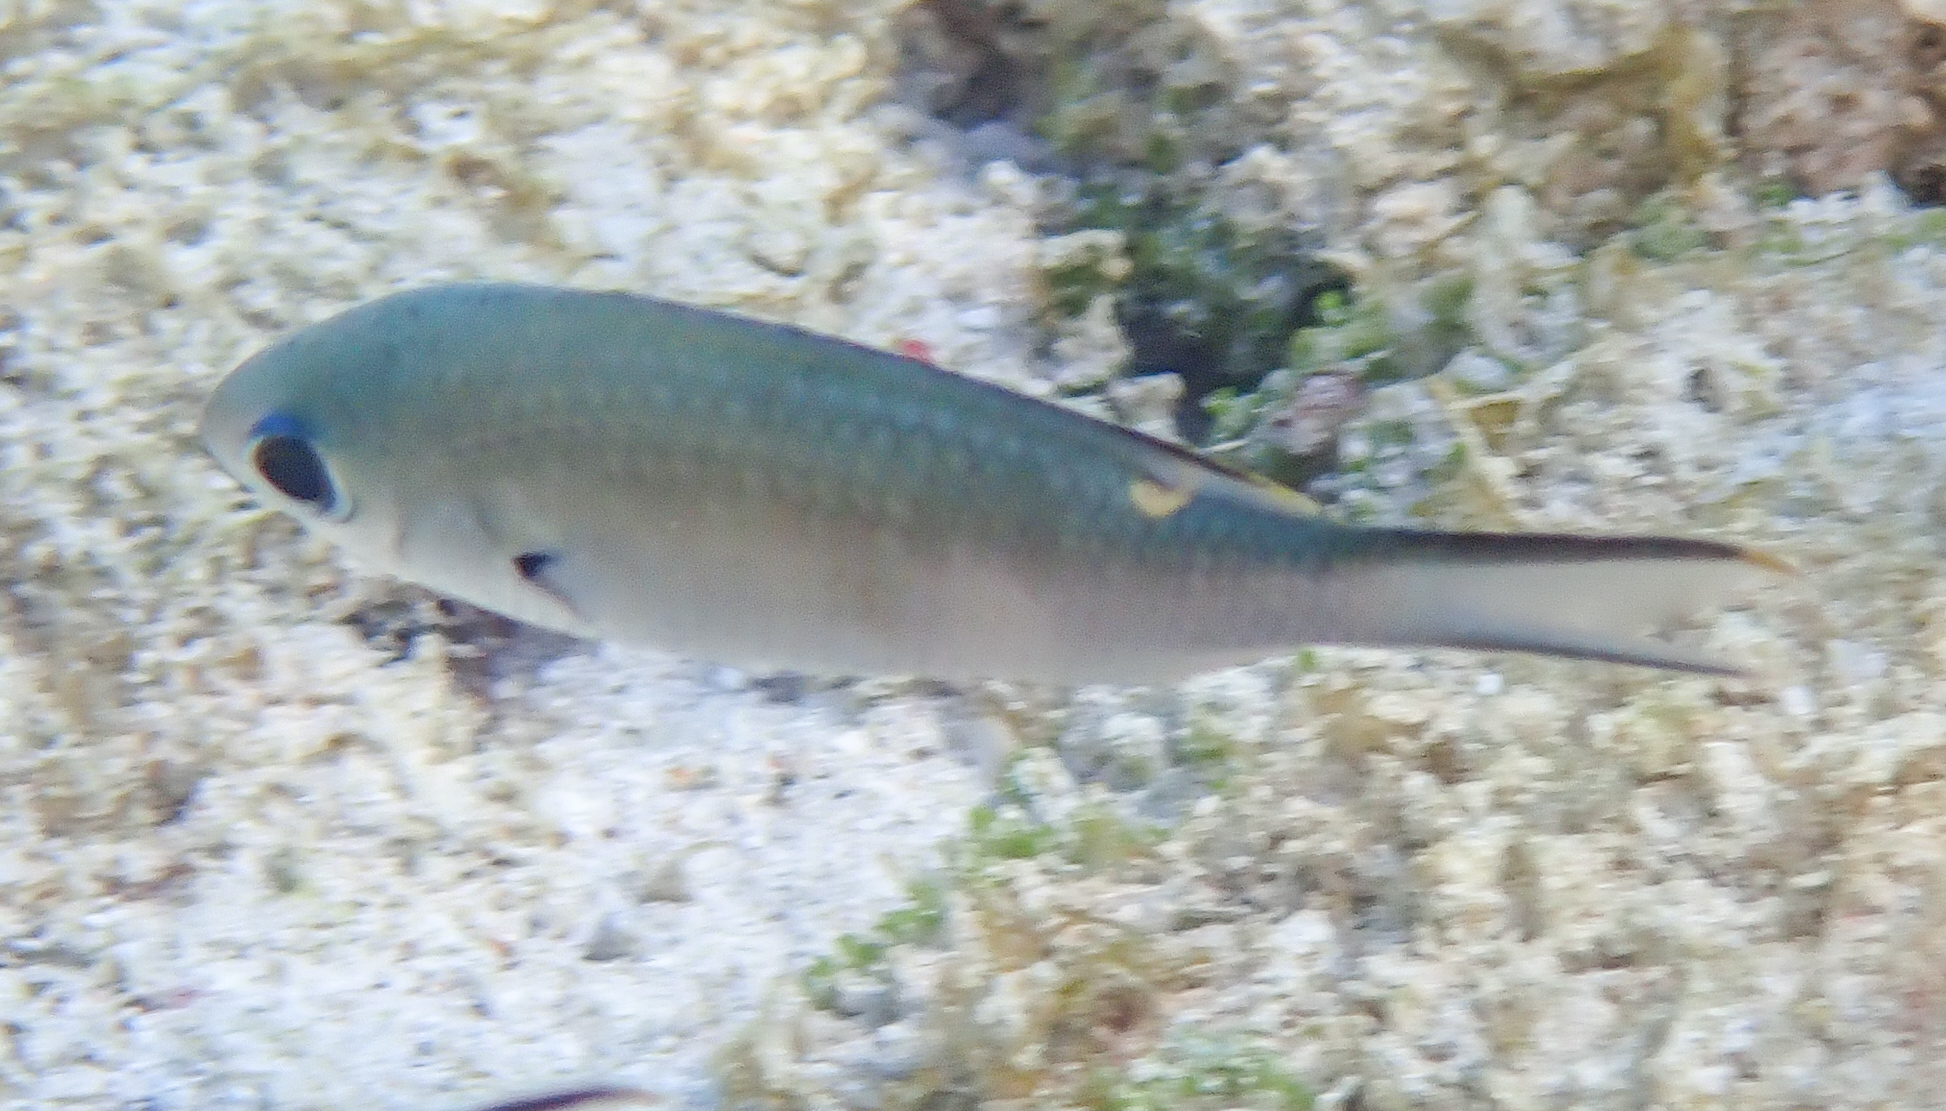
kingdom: Animalia
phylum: Chordata
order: Perciformes
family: Pomacentridae
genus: Chromis
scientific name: Chromis multilineata
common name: Brown chromis
